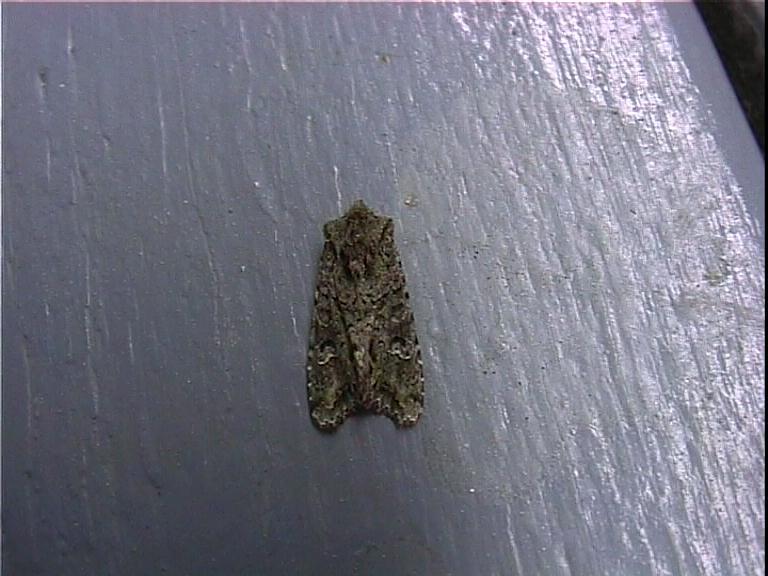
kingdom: Animalia
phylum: Arthropoda
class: Insecta
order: Lepidoptera
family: Noctuidae
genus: Ichneutica
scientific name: Ichneutica
